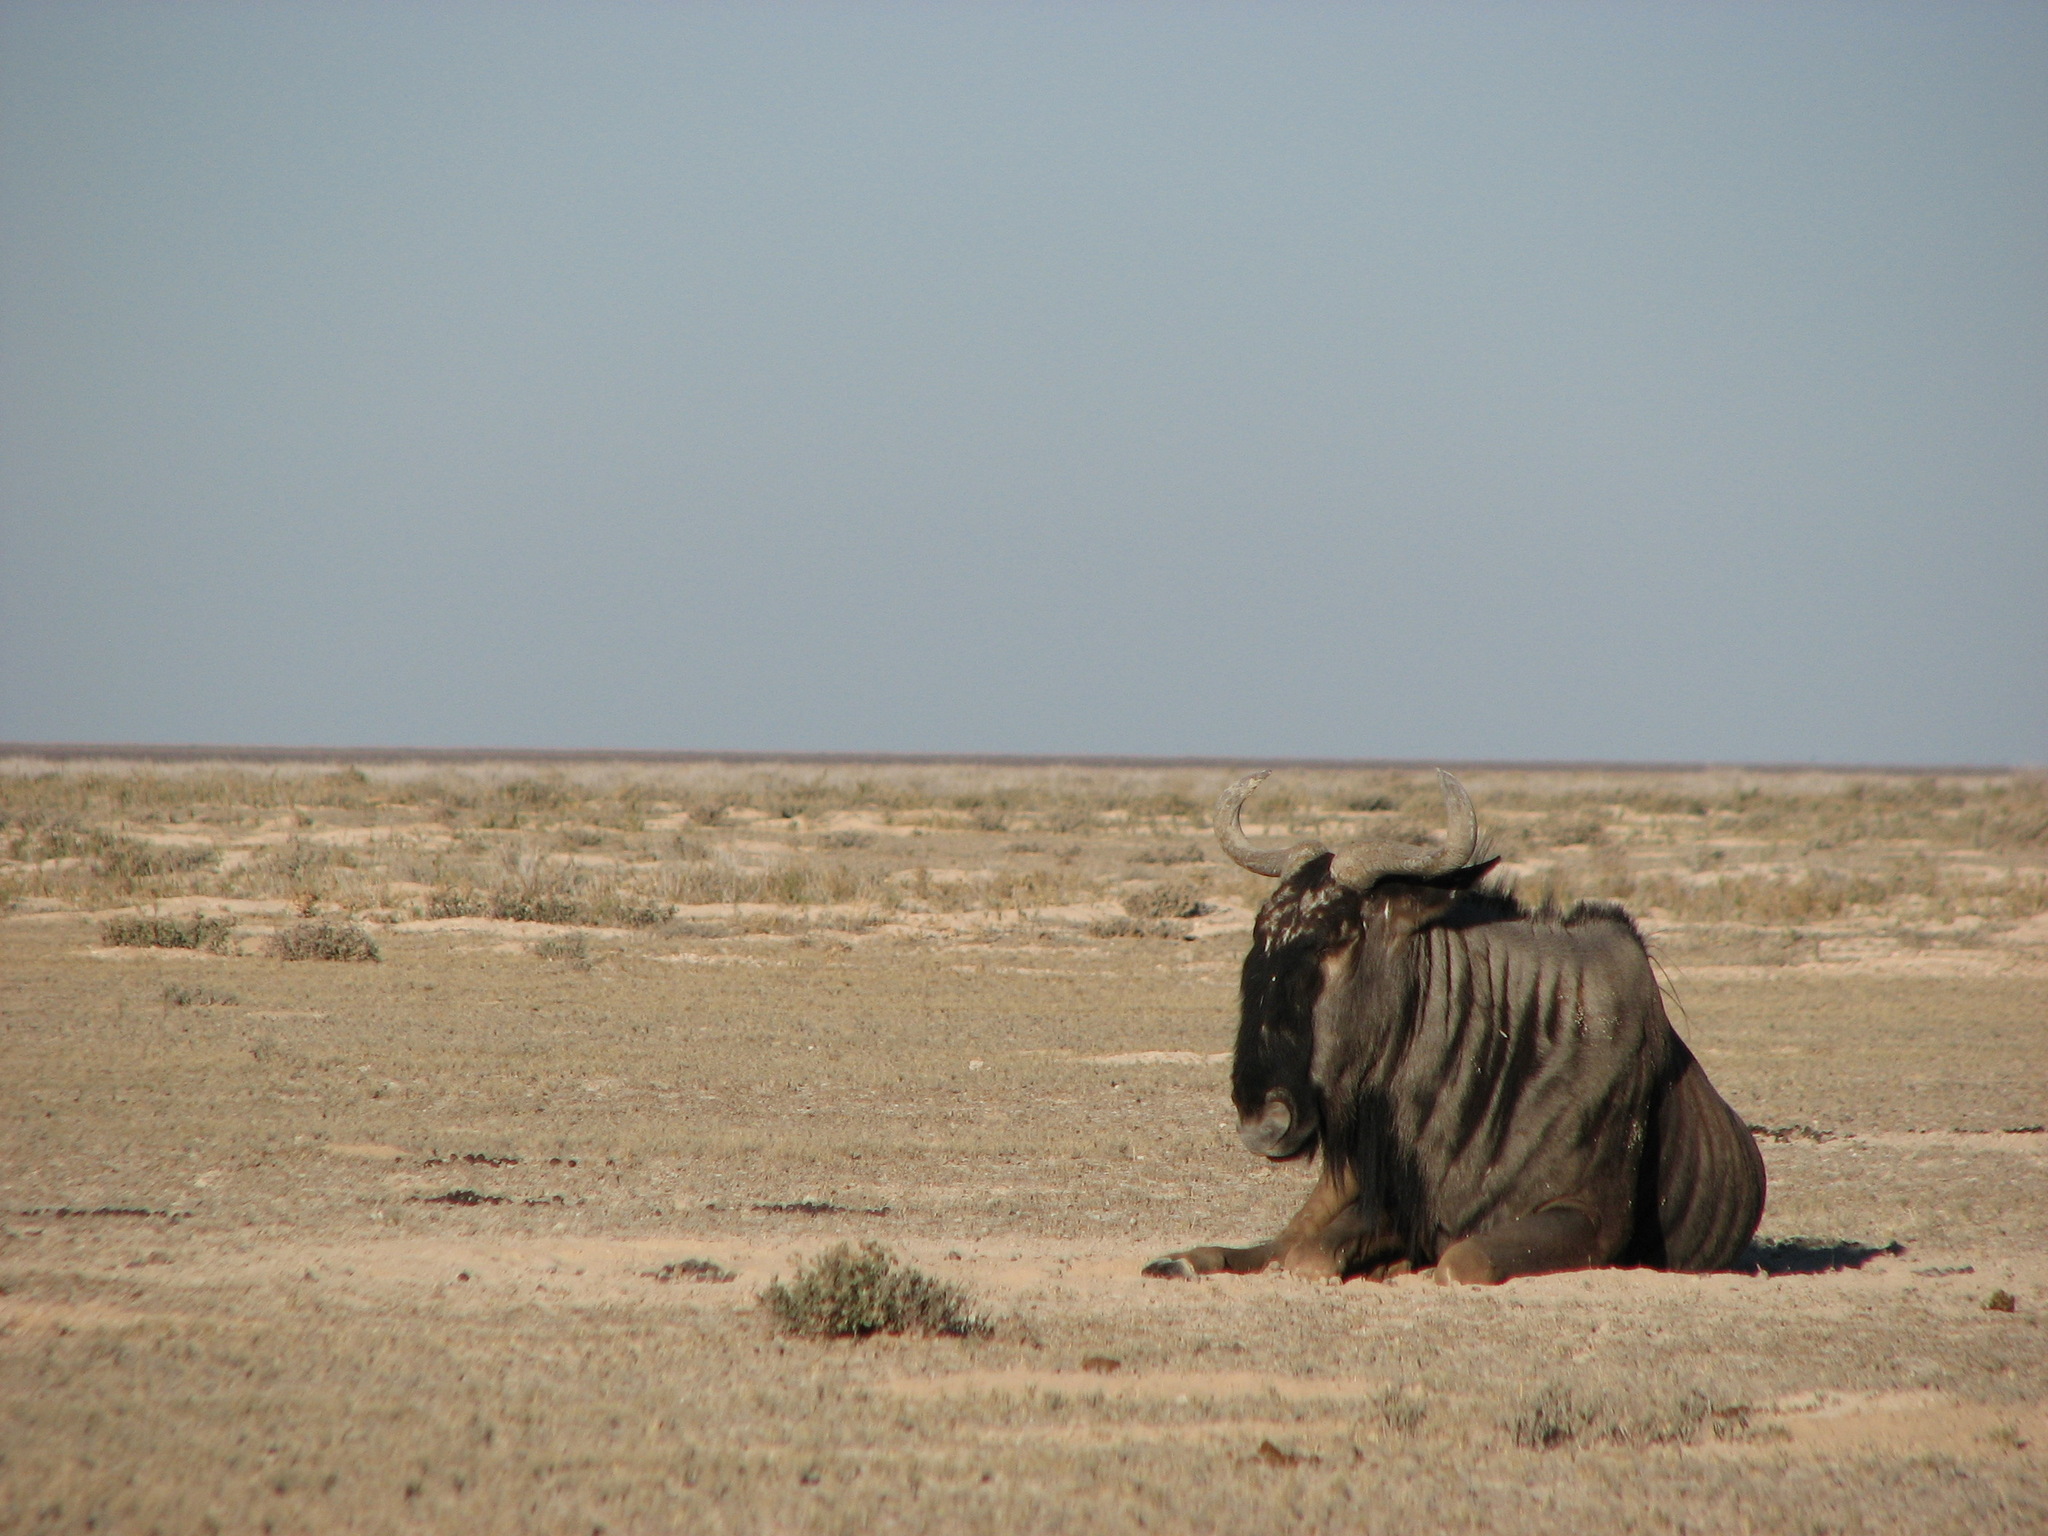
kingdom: Animalia
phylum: Chordata
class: Mammalia
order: Artiodactyla
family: Bovidae
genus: Connochaetes
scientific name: Connochaetes taurinus
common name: Blue wildebeest
